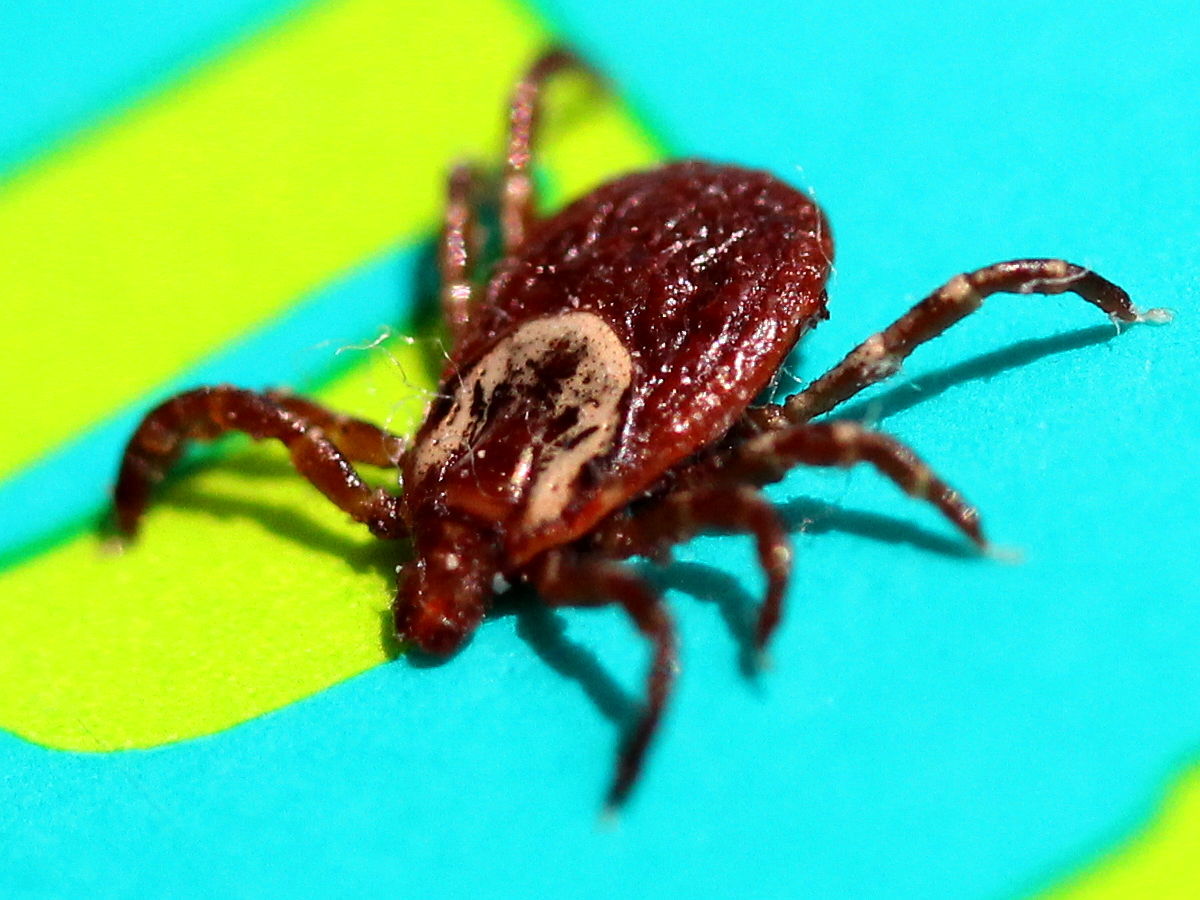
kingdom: Animalia
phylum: Arthropoda
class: Arachnida
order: Ixodida
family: Ixodidae
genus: Dermacentor
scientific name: Dermacentor variabilis
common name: American dog tick
